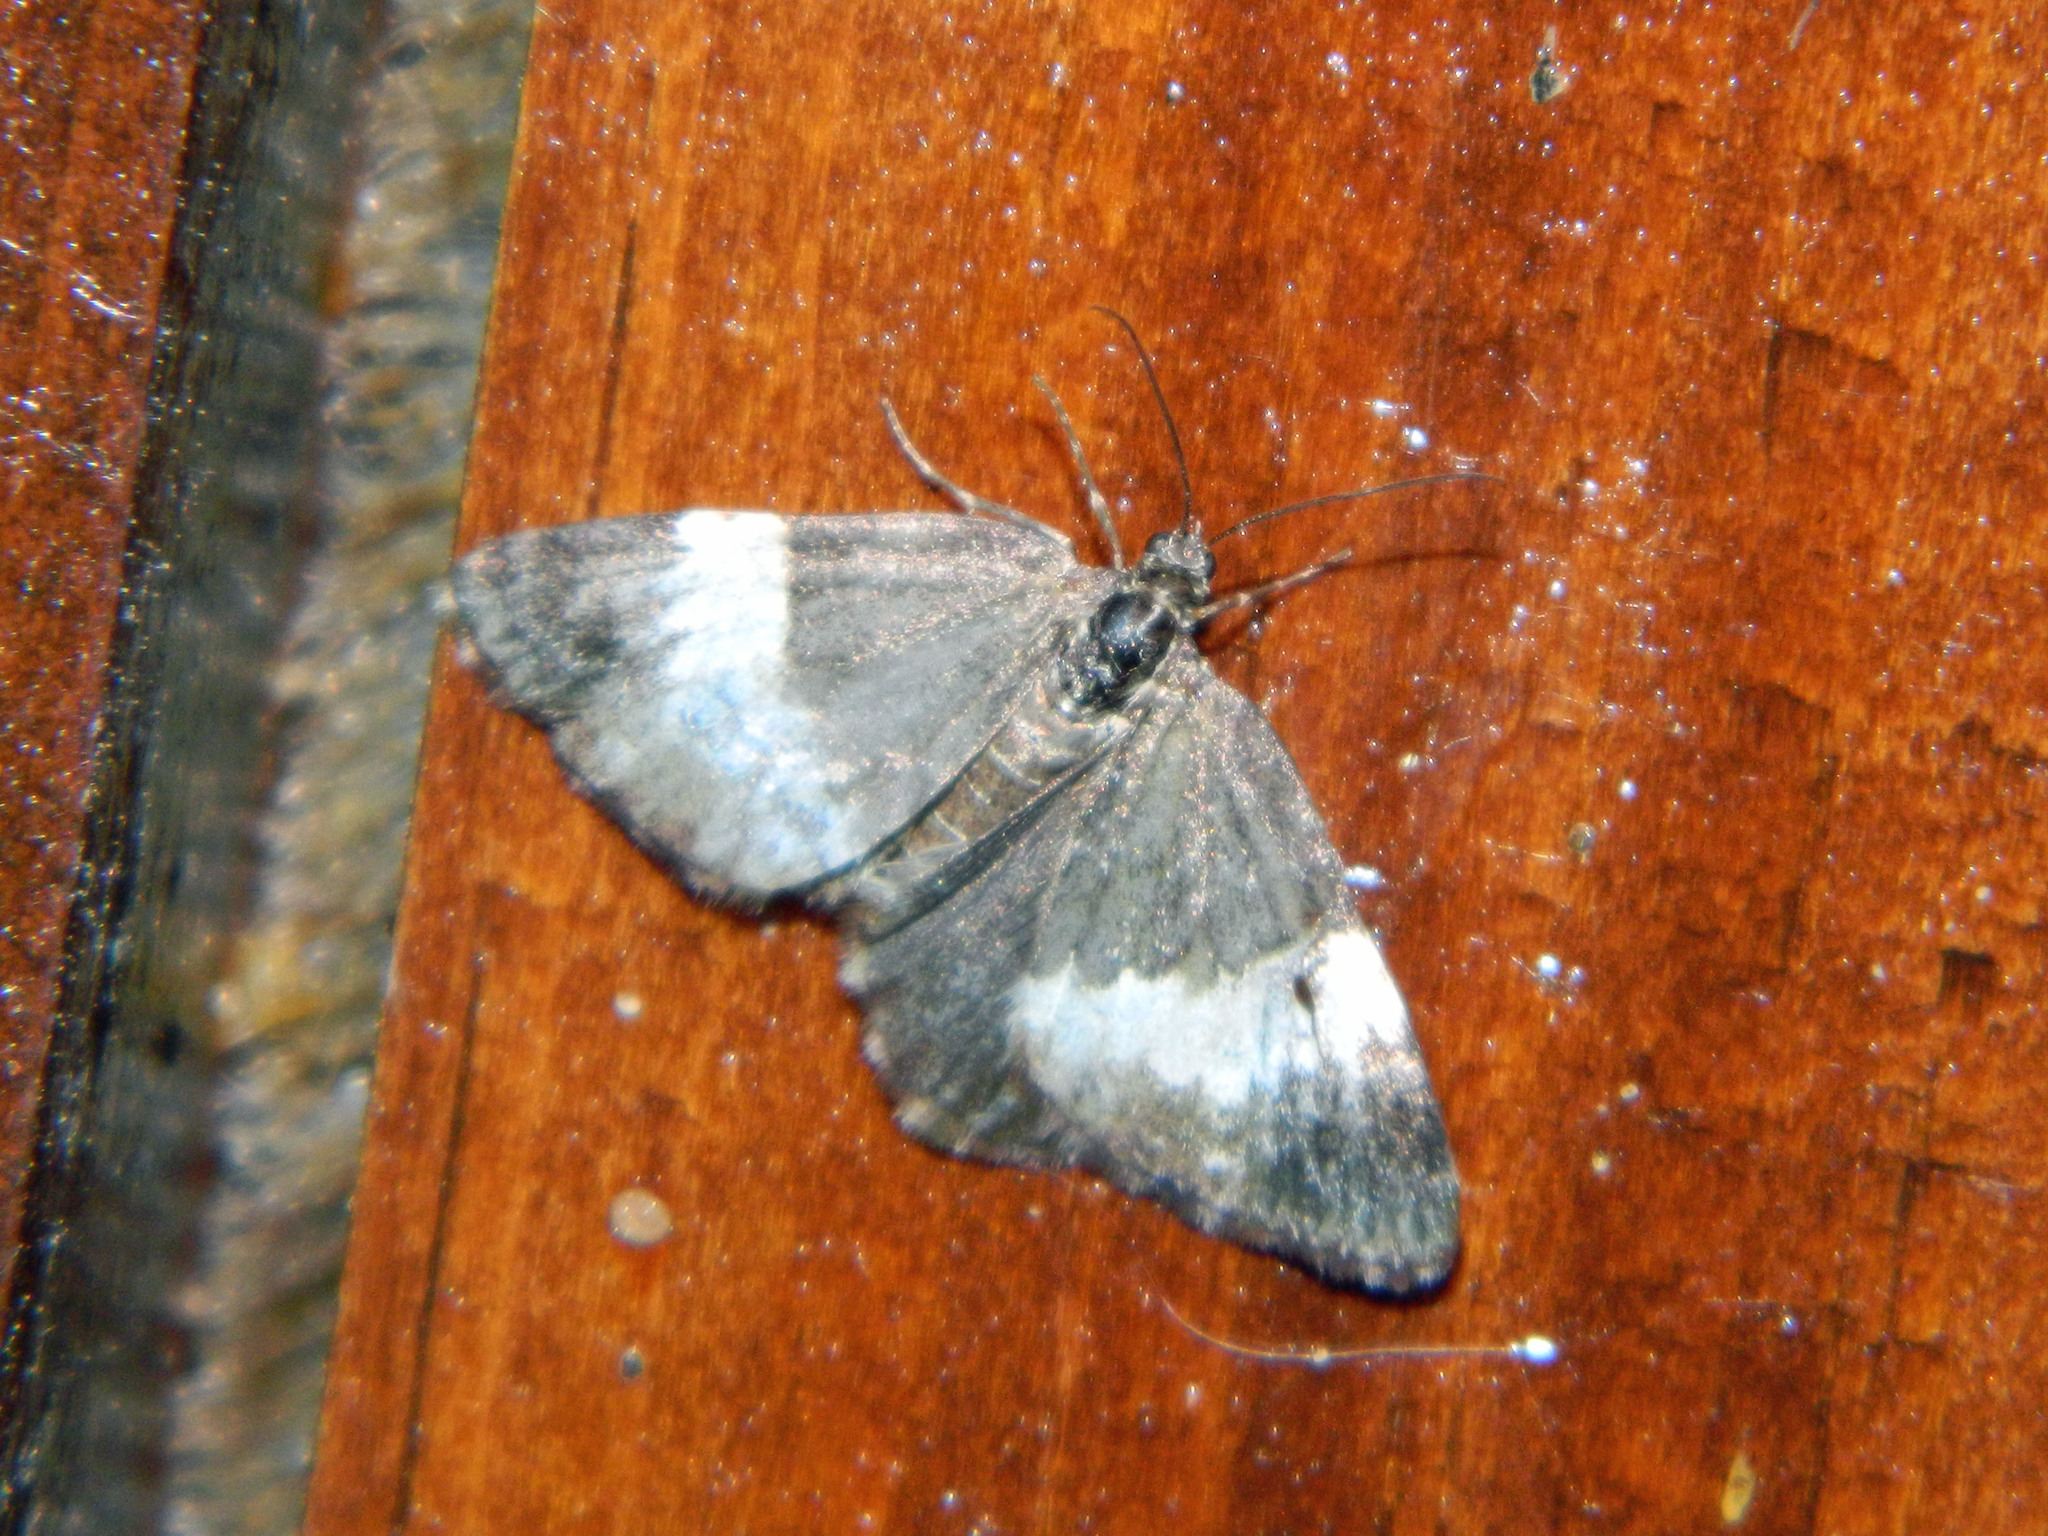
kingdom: Animalia
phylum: Arthropoda
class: Insecta
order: Lepidoptera
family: Geometridae
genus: Spargania
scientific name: Spargania luctuata
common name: White-banded carpet
